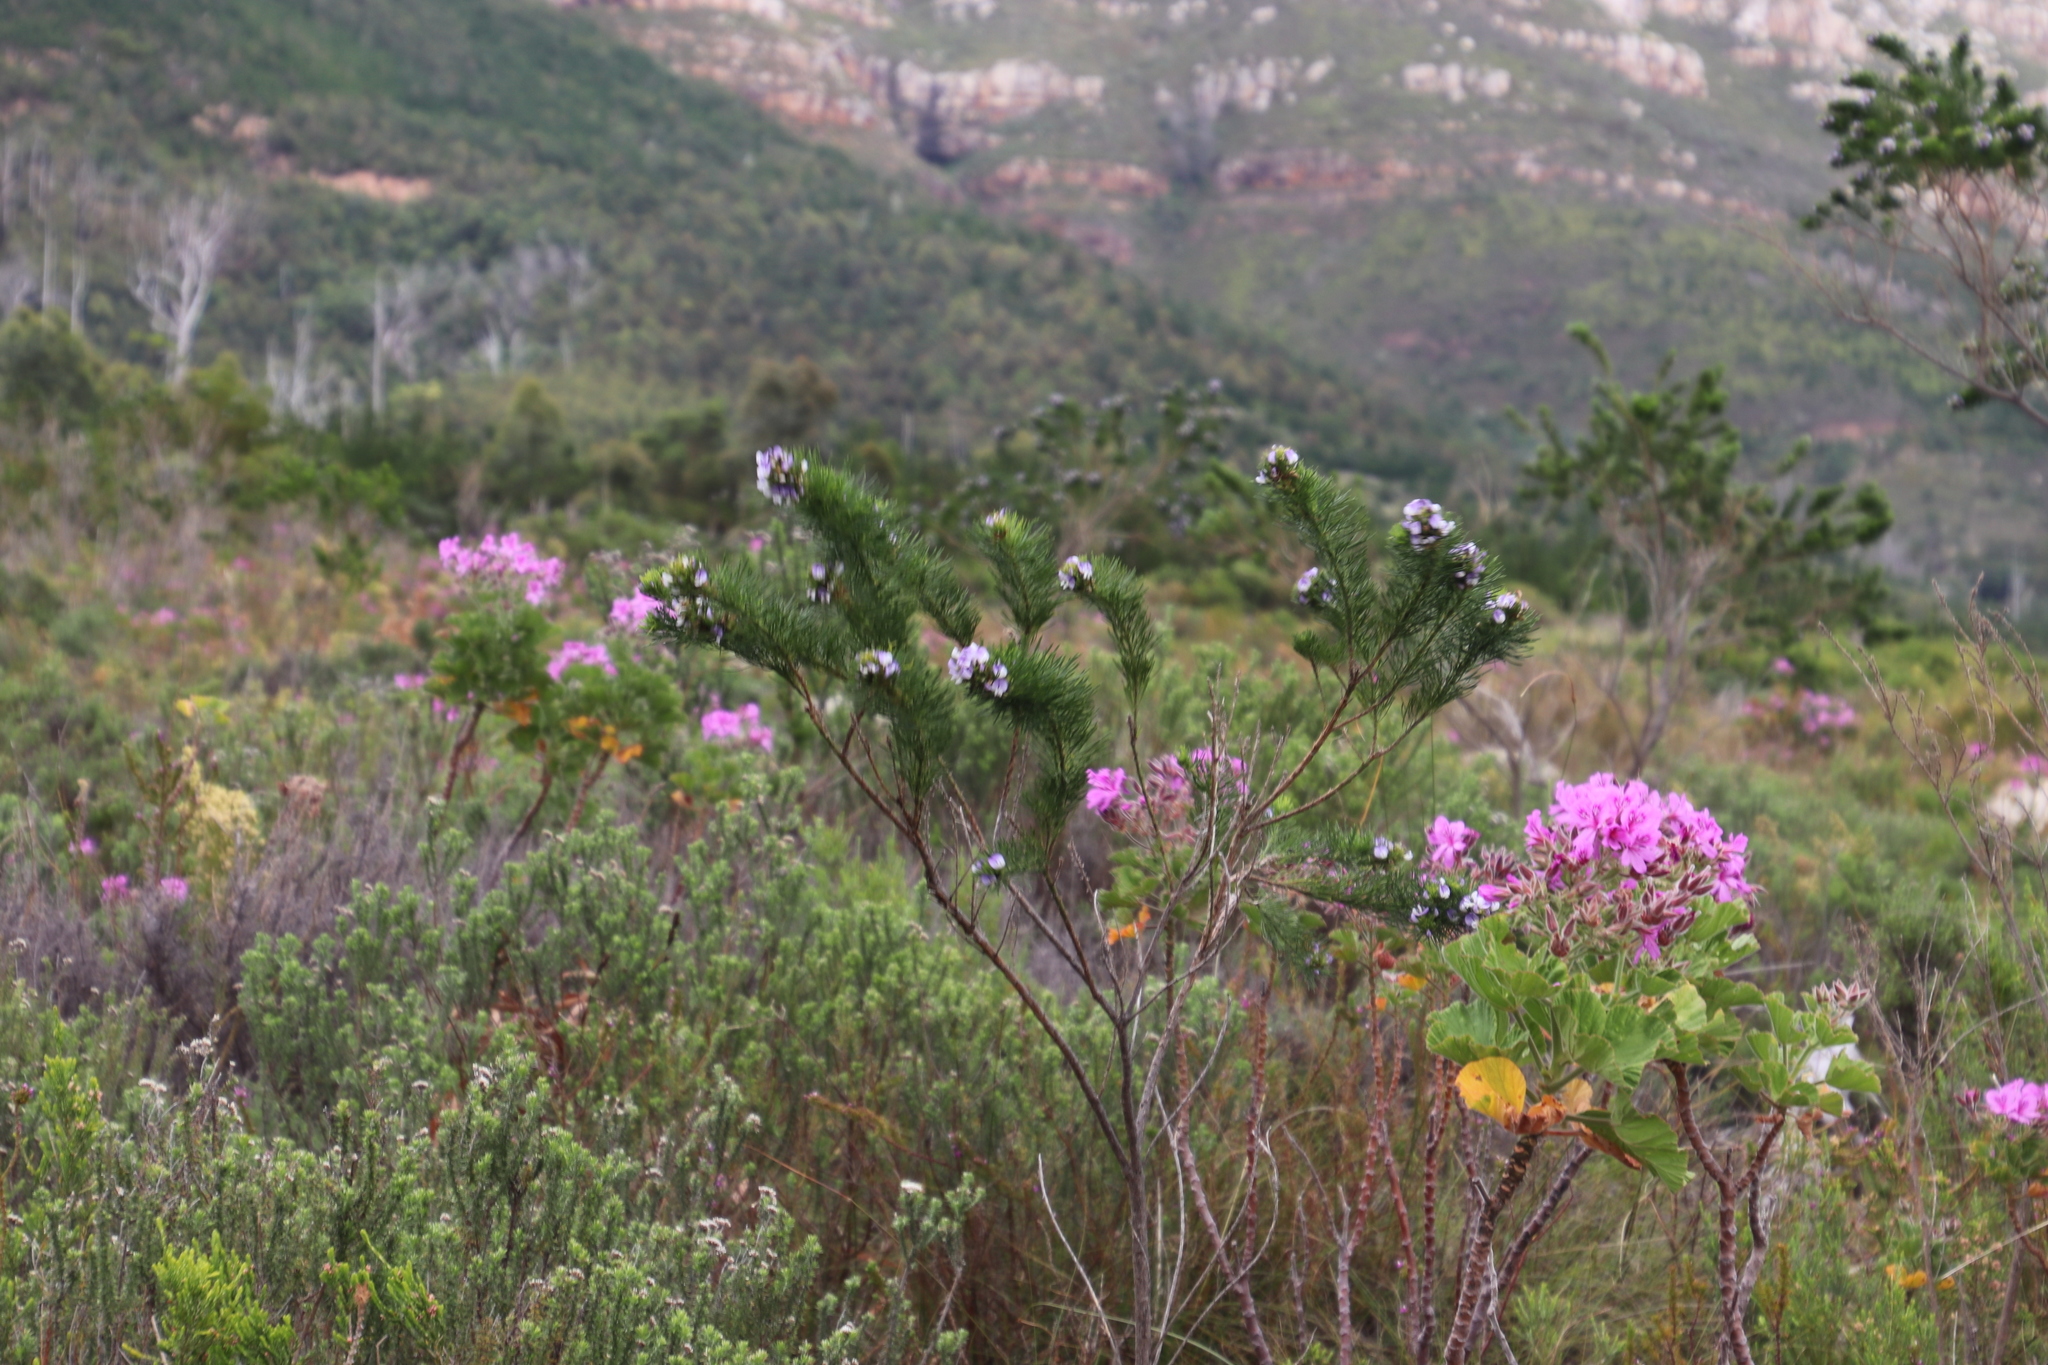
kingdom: Plantae
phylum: Tracheophyta
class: Magnoliopsida
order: Fabales
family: Fabaceae
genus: Psoralea
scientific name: Psoralea pinnata
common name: African scurfpea
